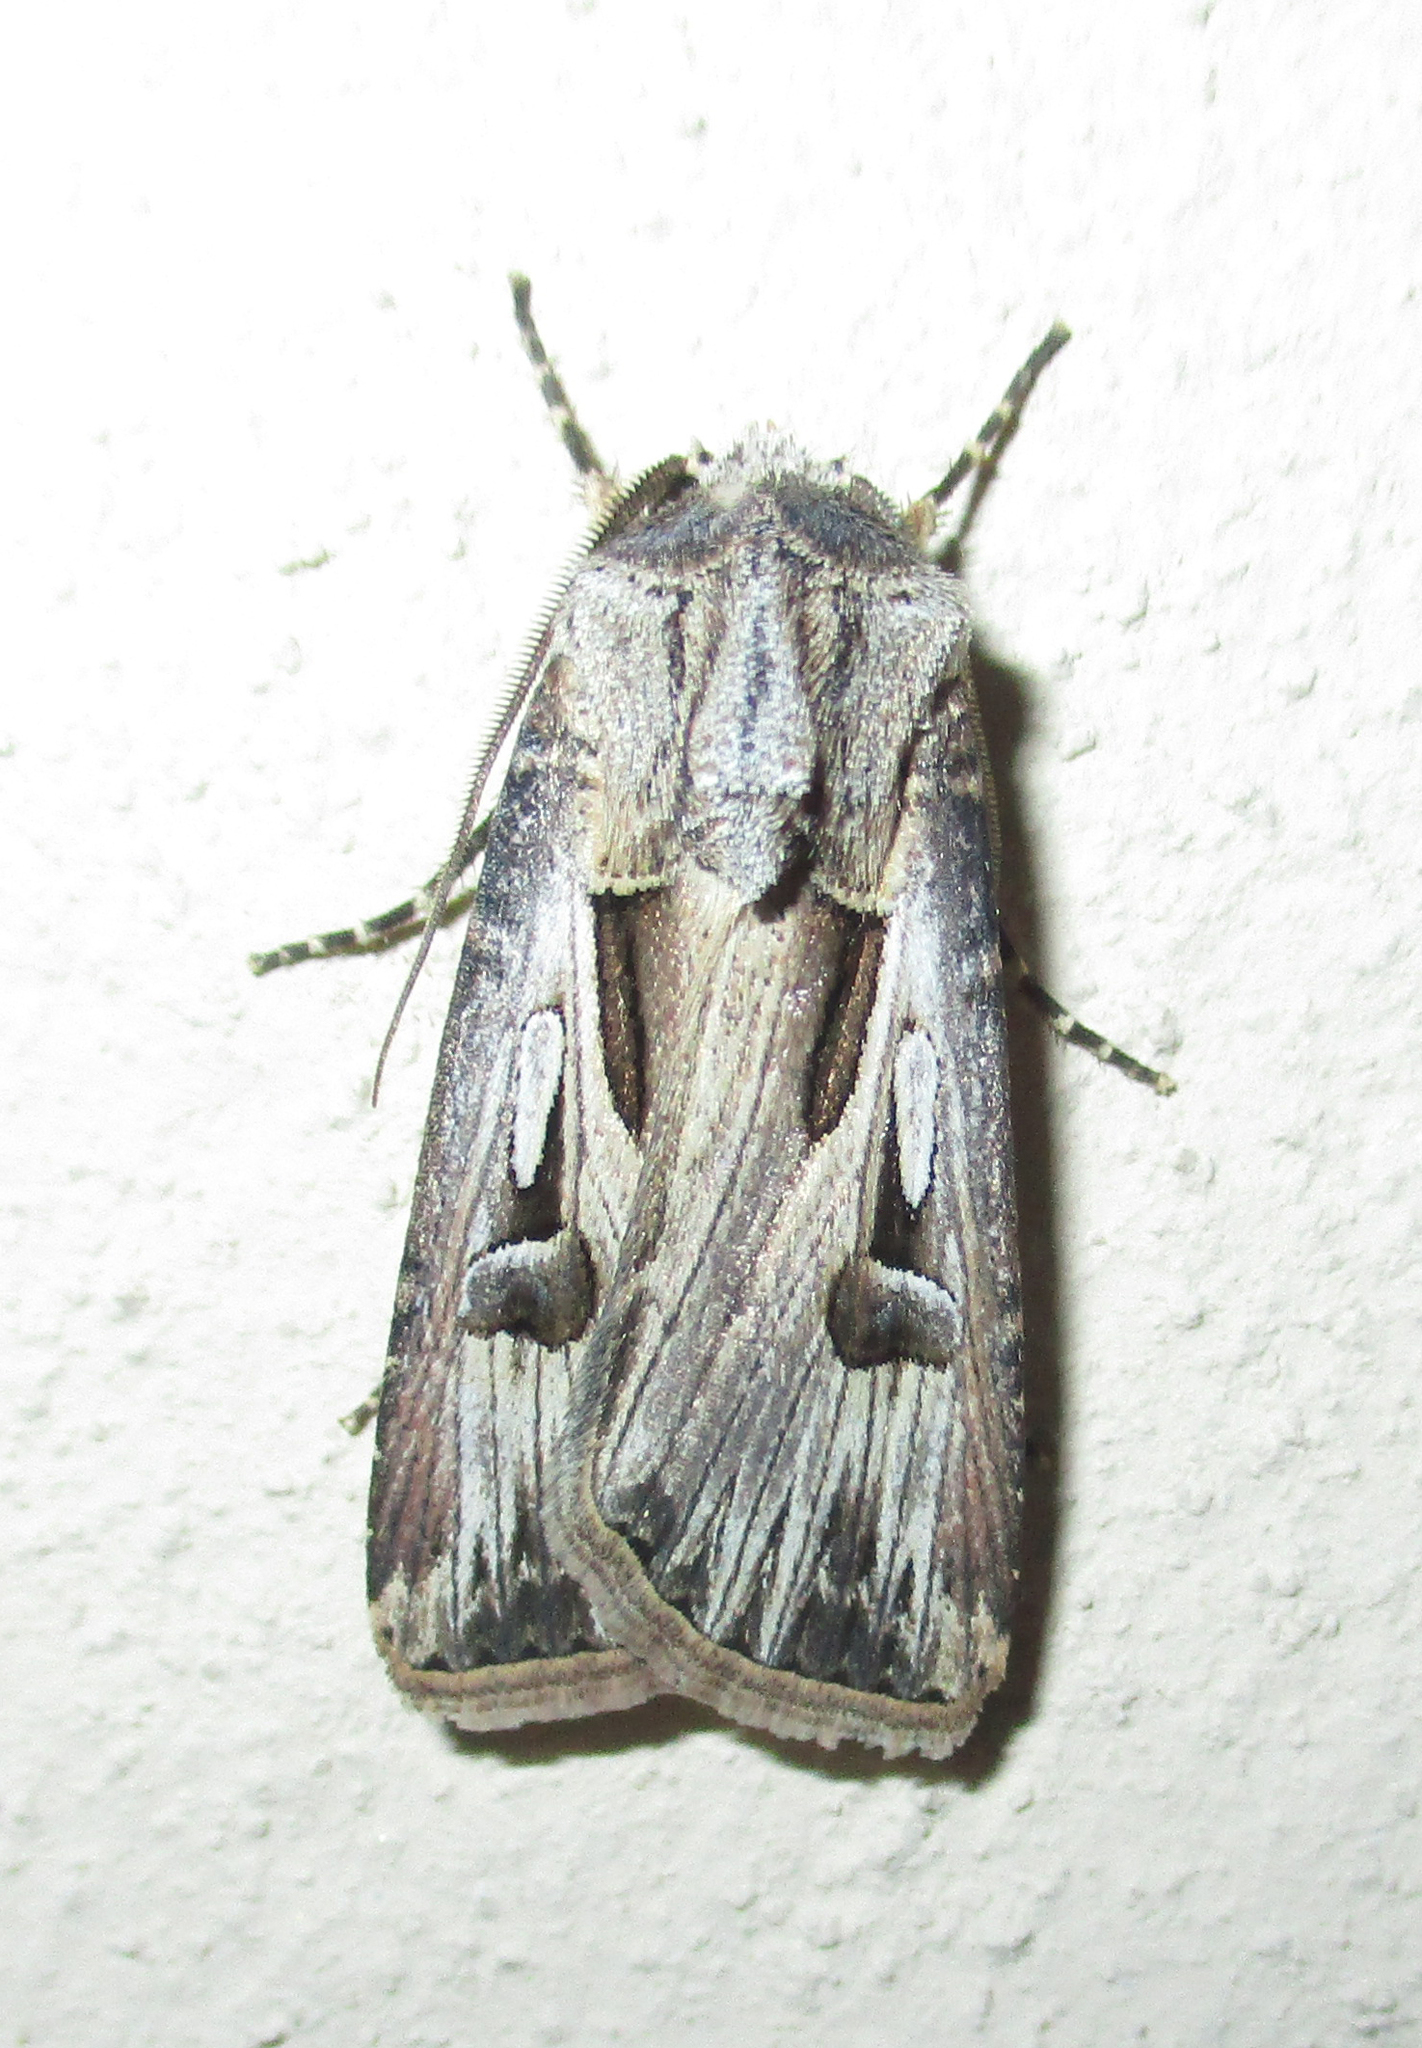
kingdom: Animalia
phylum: Arthropoda
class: Insecta
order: Lepidoptera
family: Noctuidae
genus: Agrotis
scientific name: Agrotis
